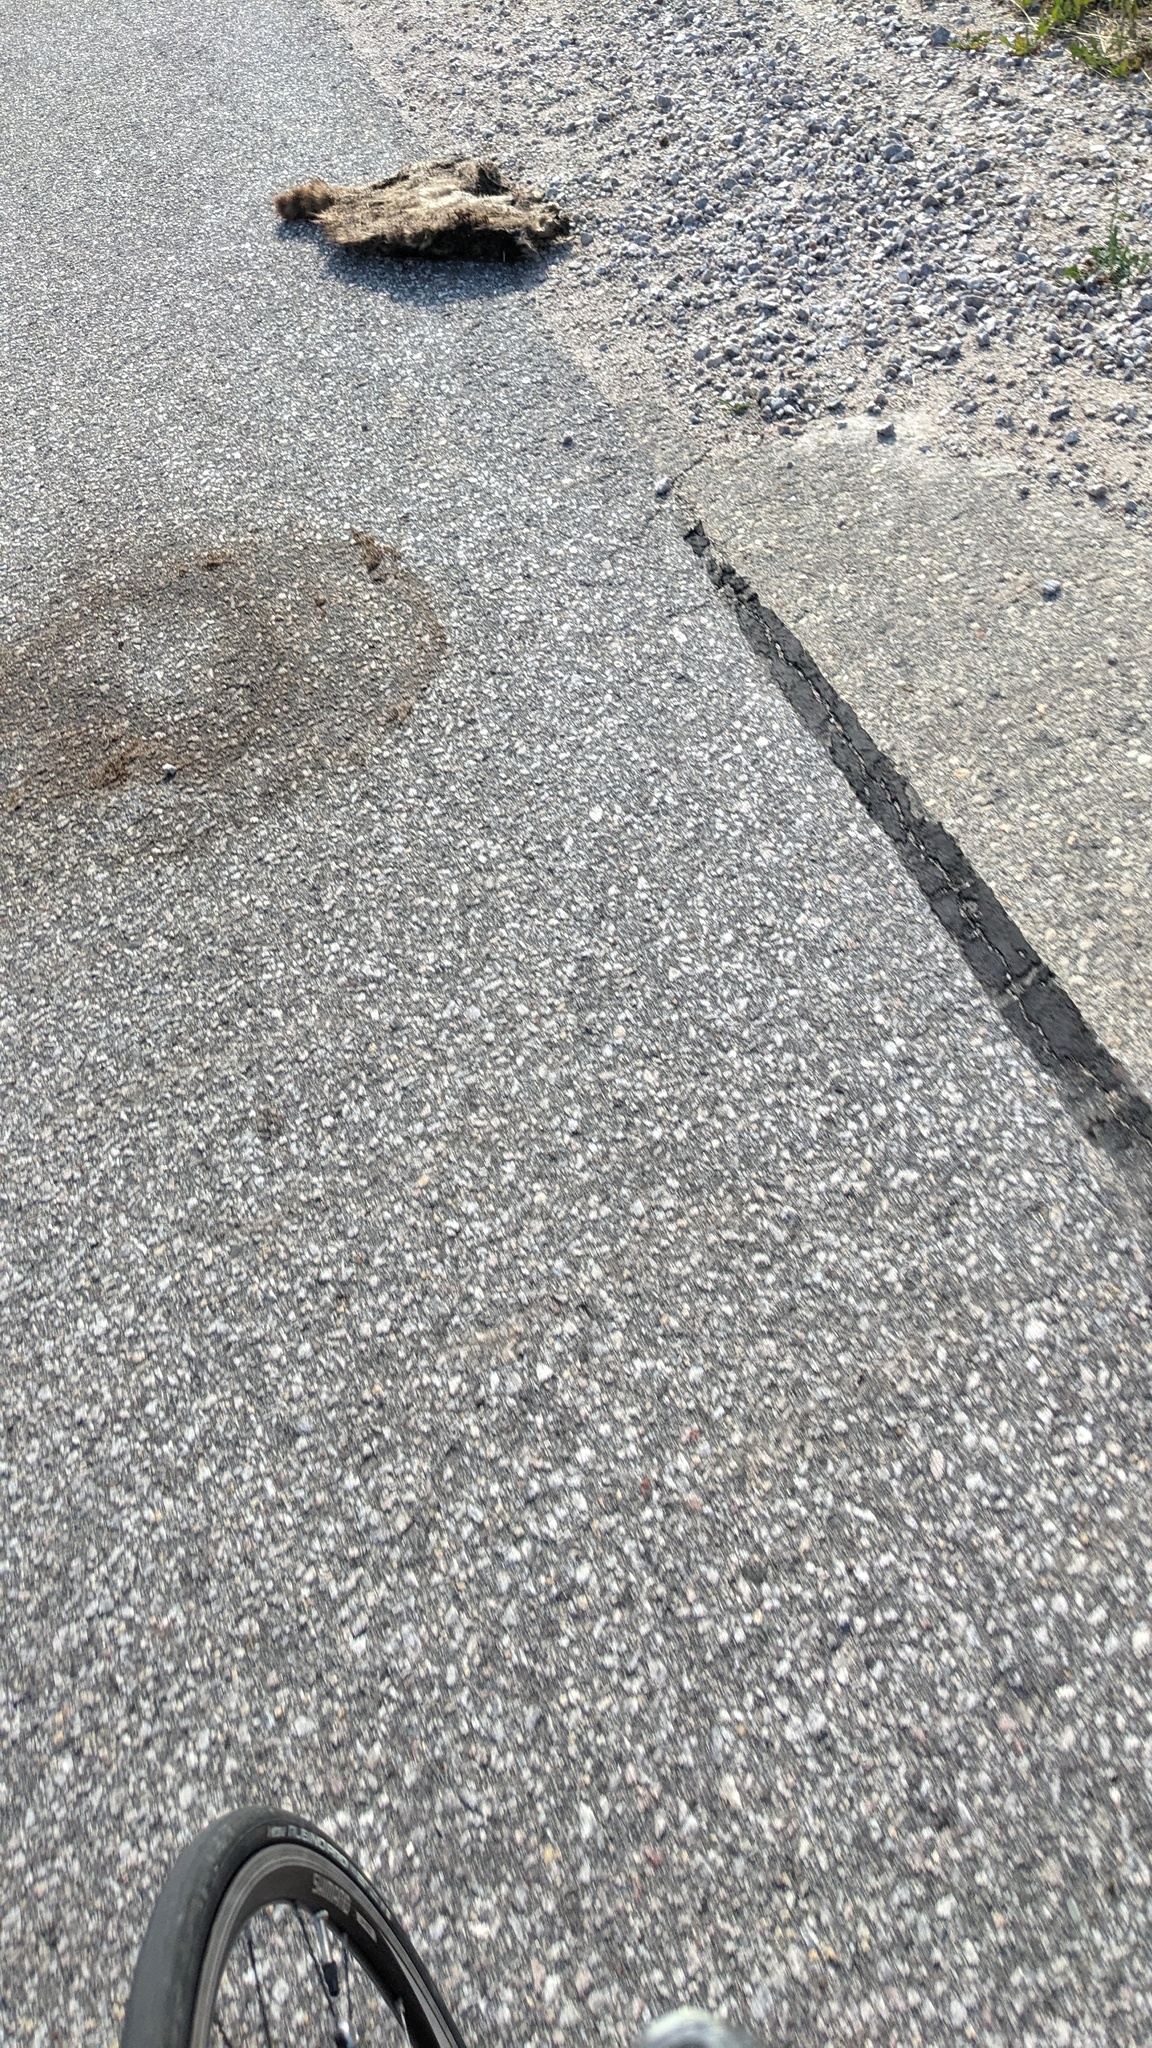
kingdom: Animalia
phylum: Chordata
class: Mammalia
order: Carnivora
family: Procyonidae
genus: Procyon
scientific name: Procyon lotor
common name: Raccoon
